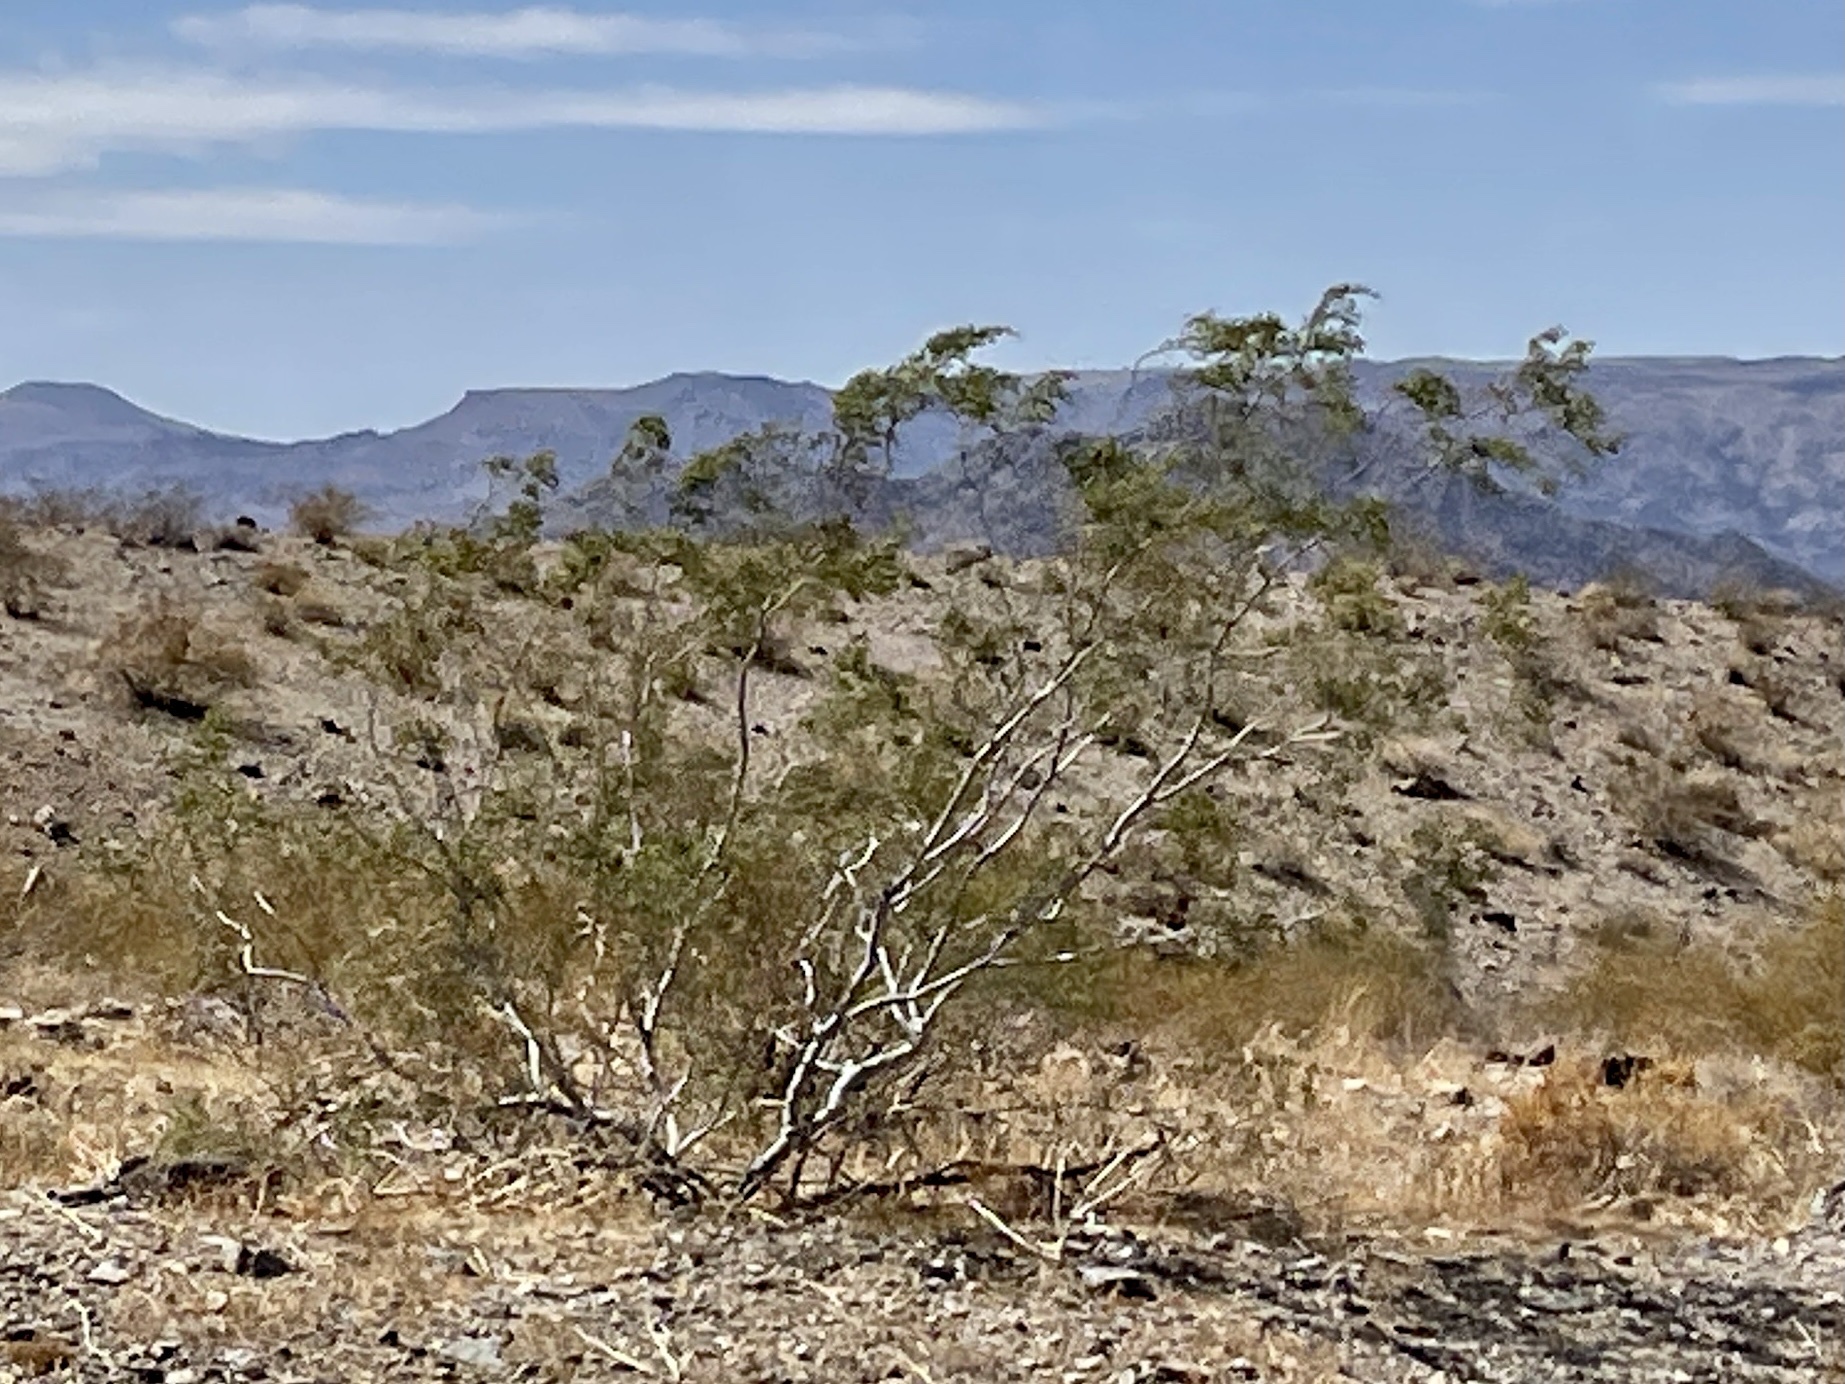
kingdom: Plantae
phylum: Tracheophyta
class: Magnoliopsida
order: Zygophyllales
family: Zygophyllaceae
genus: Larrea
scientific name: Larrea tridentata
